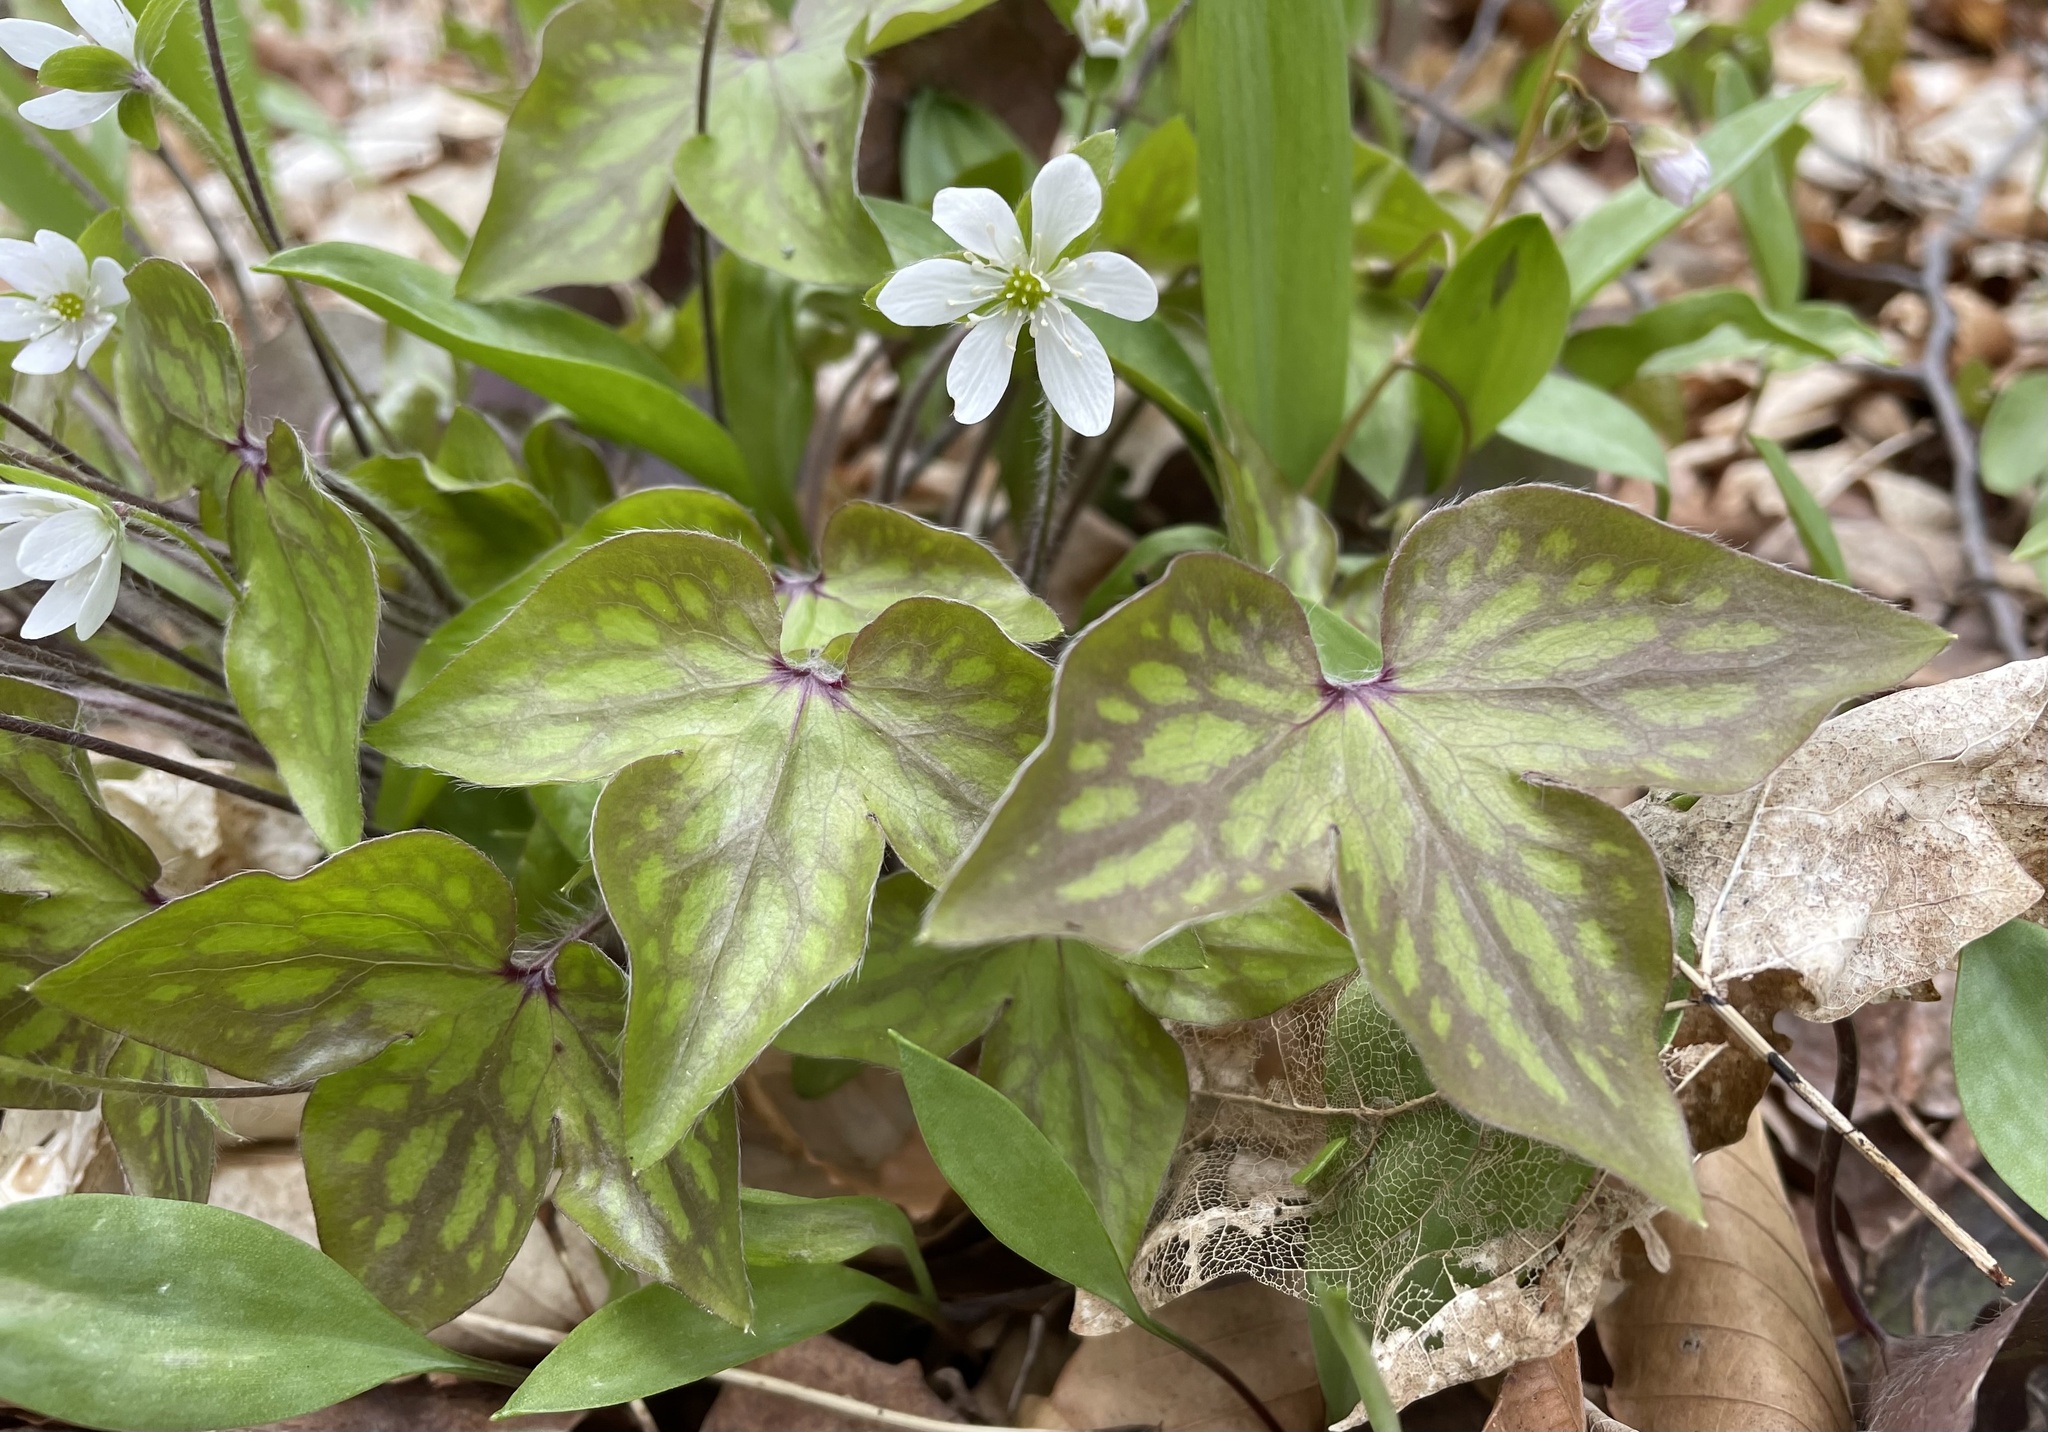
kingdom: Plantae
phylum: Tracheophyta
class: Magnoliopsida
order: Ranunculales
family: Ranunculaceae
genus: Hepatica
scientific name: Hepatica acutiloba
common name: Sharp-lobed hepatica
